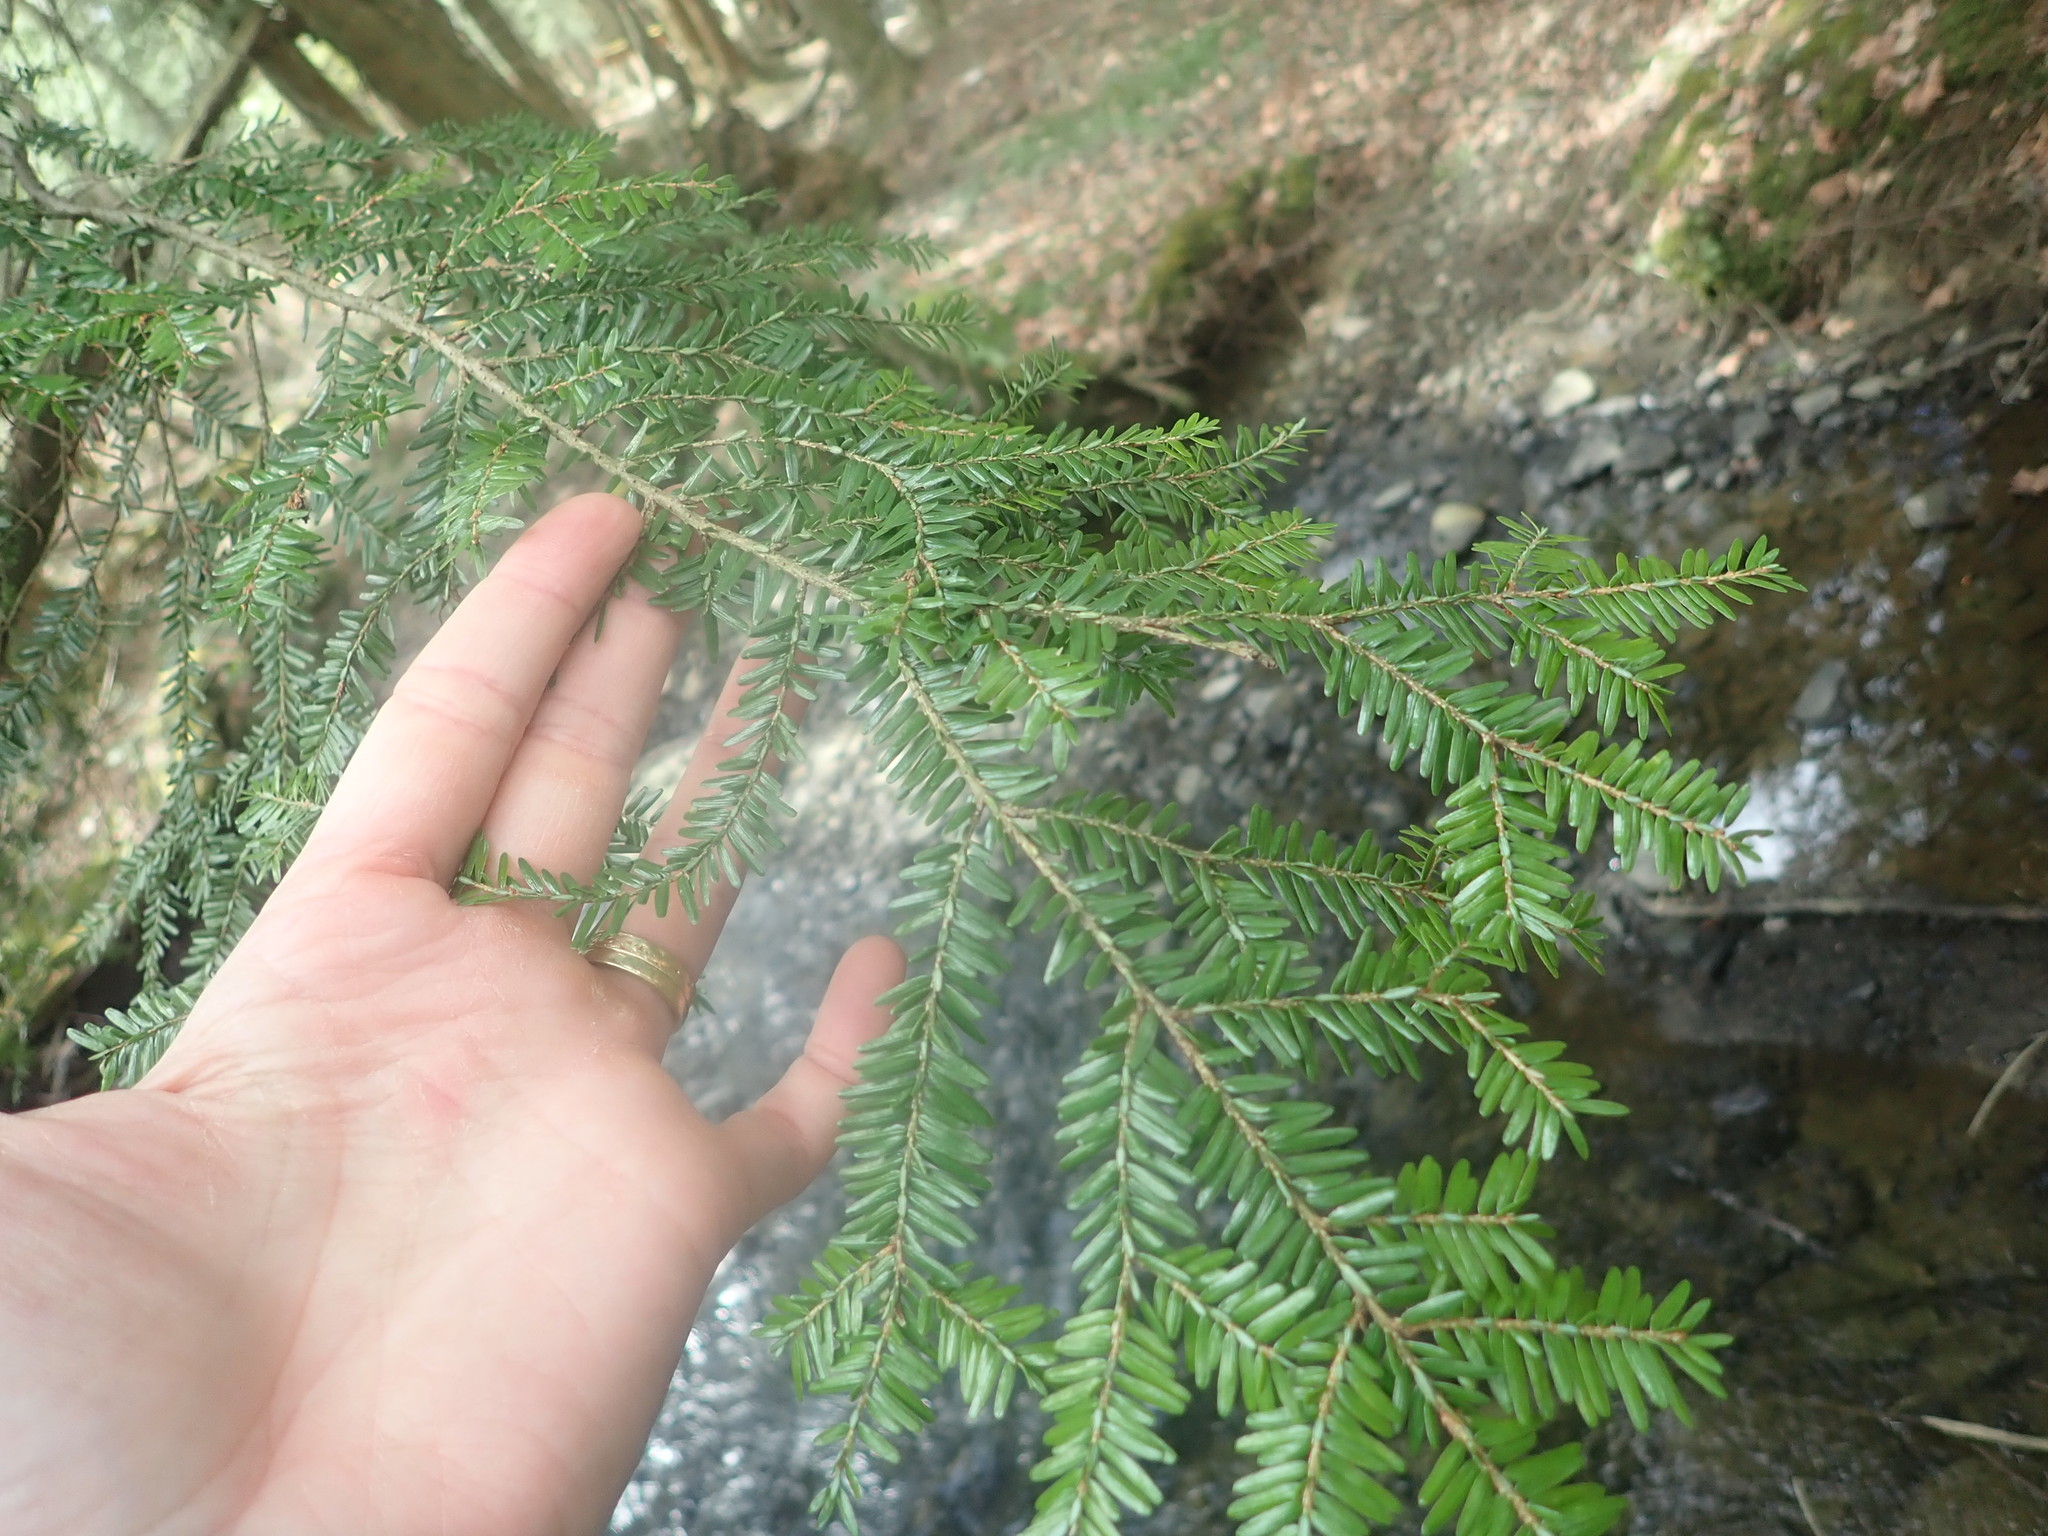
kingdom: Plantae
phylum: Tracheophyta
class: Pinopsida
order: Pinales
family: Pinaceae
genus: Tsuga
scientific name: Tsuga canadensis
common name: Eastern hemlock
